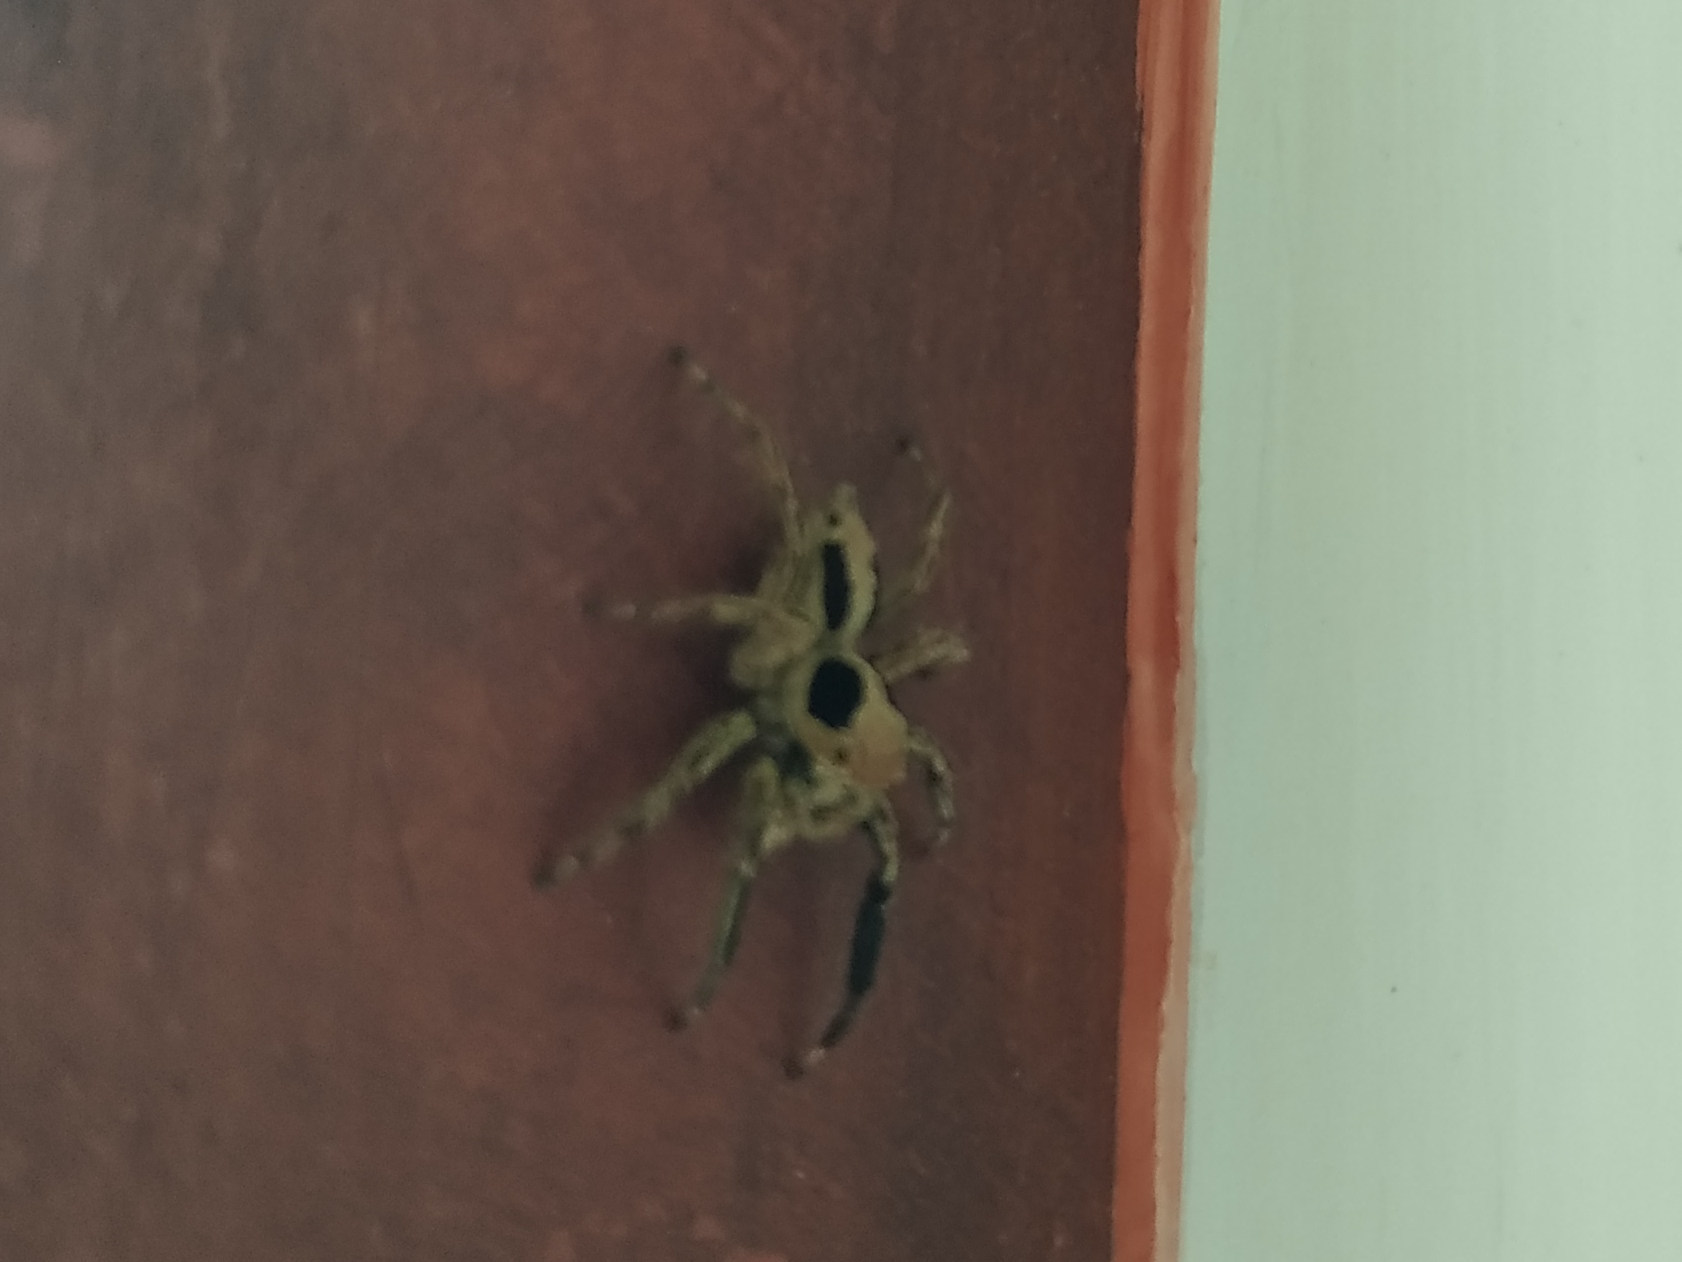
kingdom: Animalia
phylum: Arthropoda
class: Arachnida
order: Araneae
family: Salticidae
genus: Plexippus
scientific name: Plexippus petersi
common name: Jumping spider
